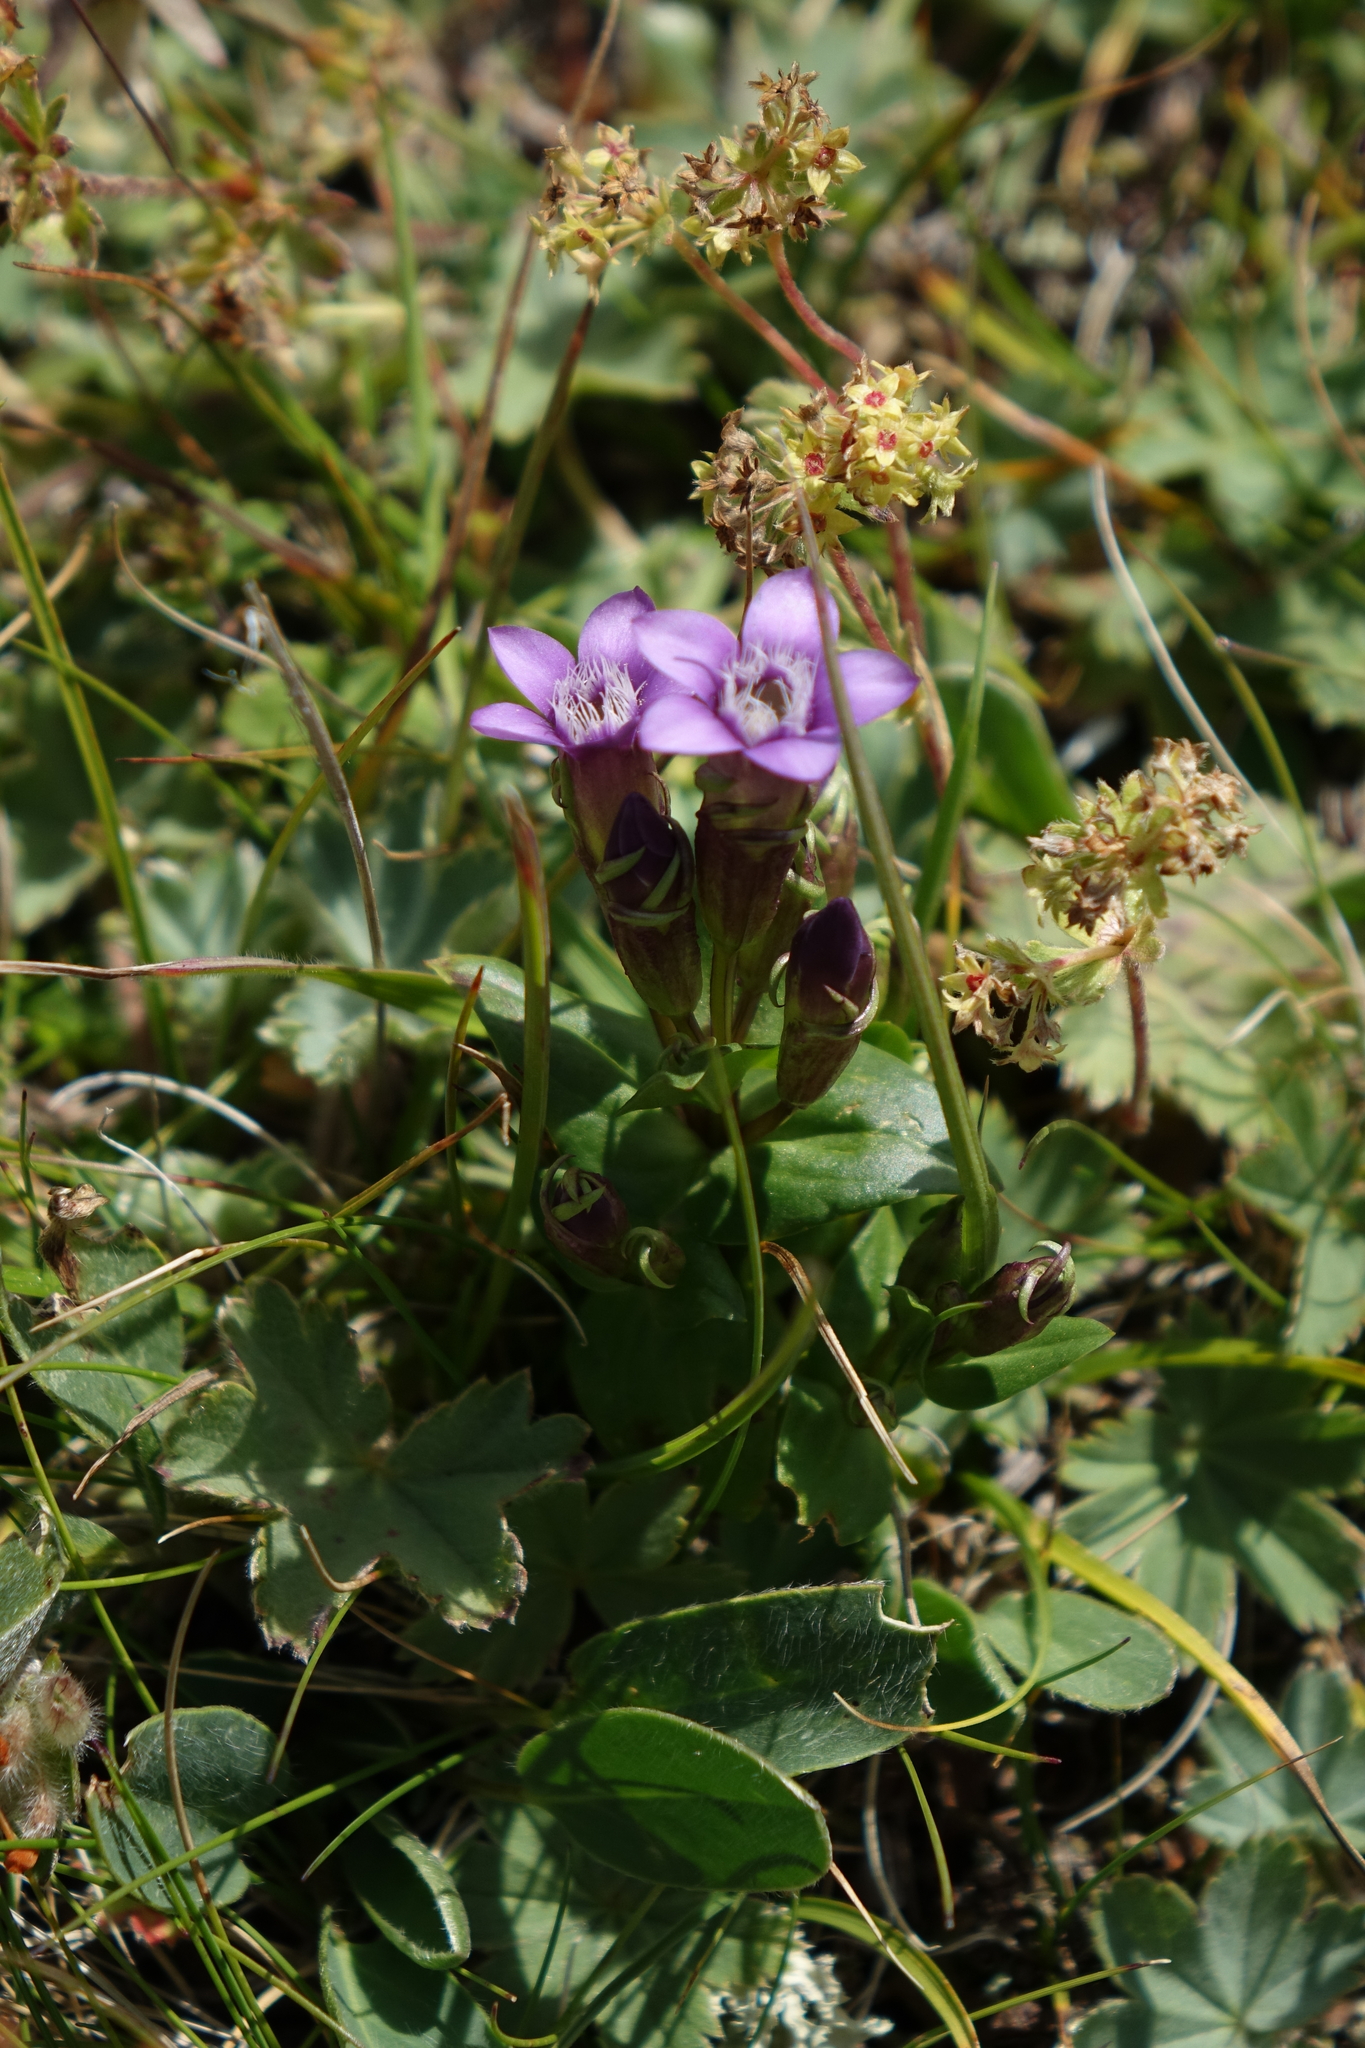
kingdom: Plantae
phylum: Tracheophyta
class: Magnoliopsida
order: Gentianales
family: Gentianaceae
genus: Gentianella
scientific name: Gentianella caucasea
